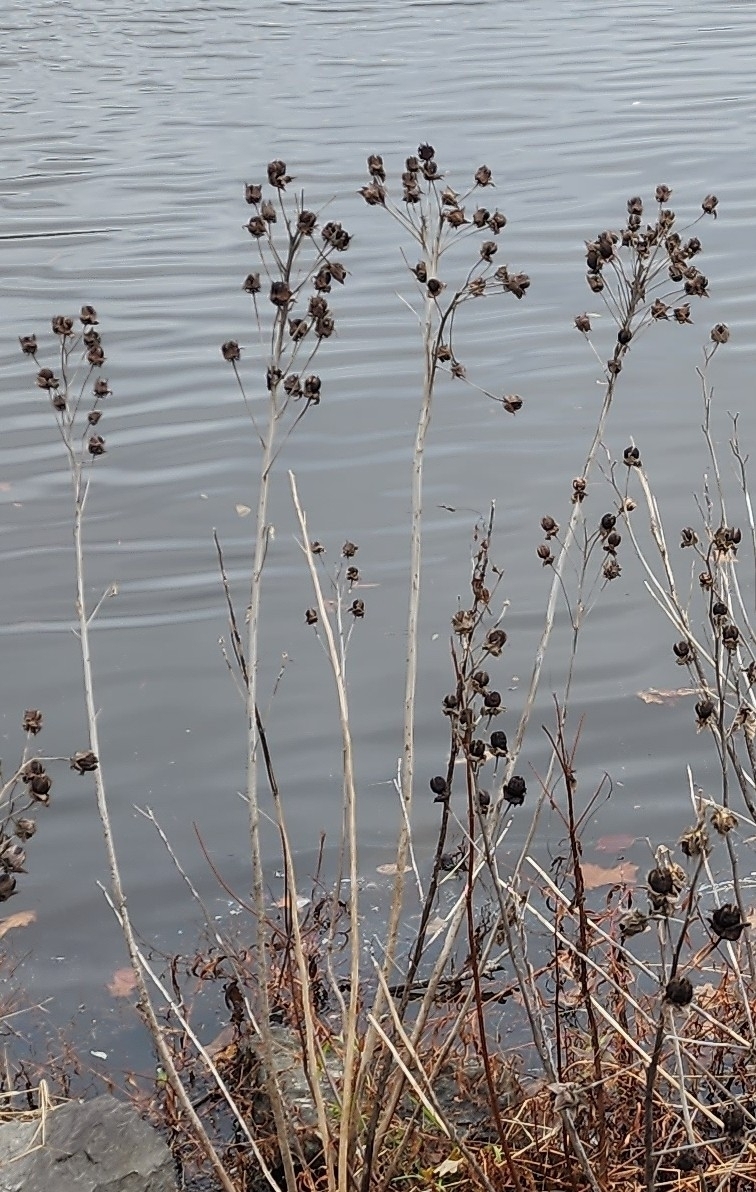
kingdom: Plantae
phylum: Tracheophyta
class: Magnoliopsida
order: Malvales
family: Malvaceae
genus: Hibiscus
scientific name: Hibiscus moscheutos
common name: Common rose-mallow
